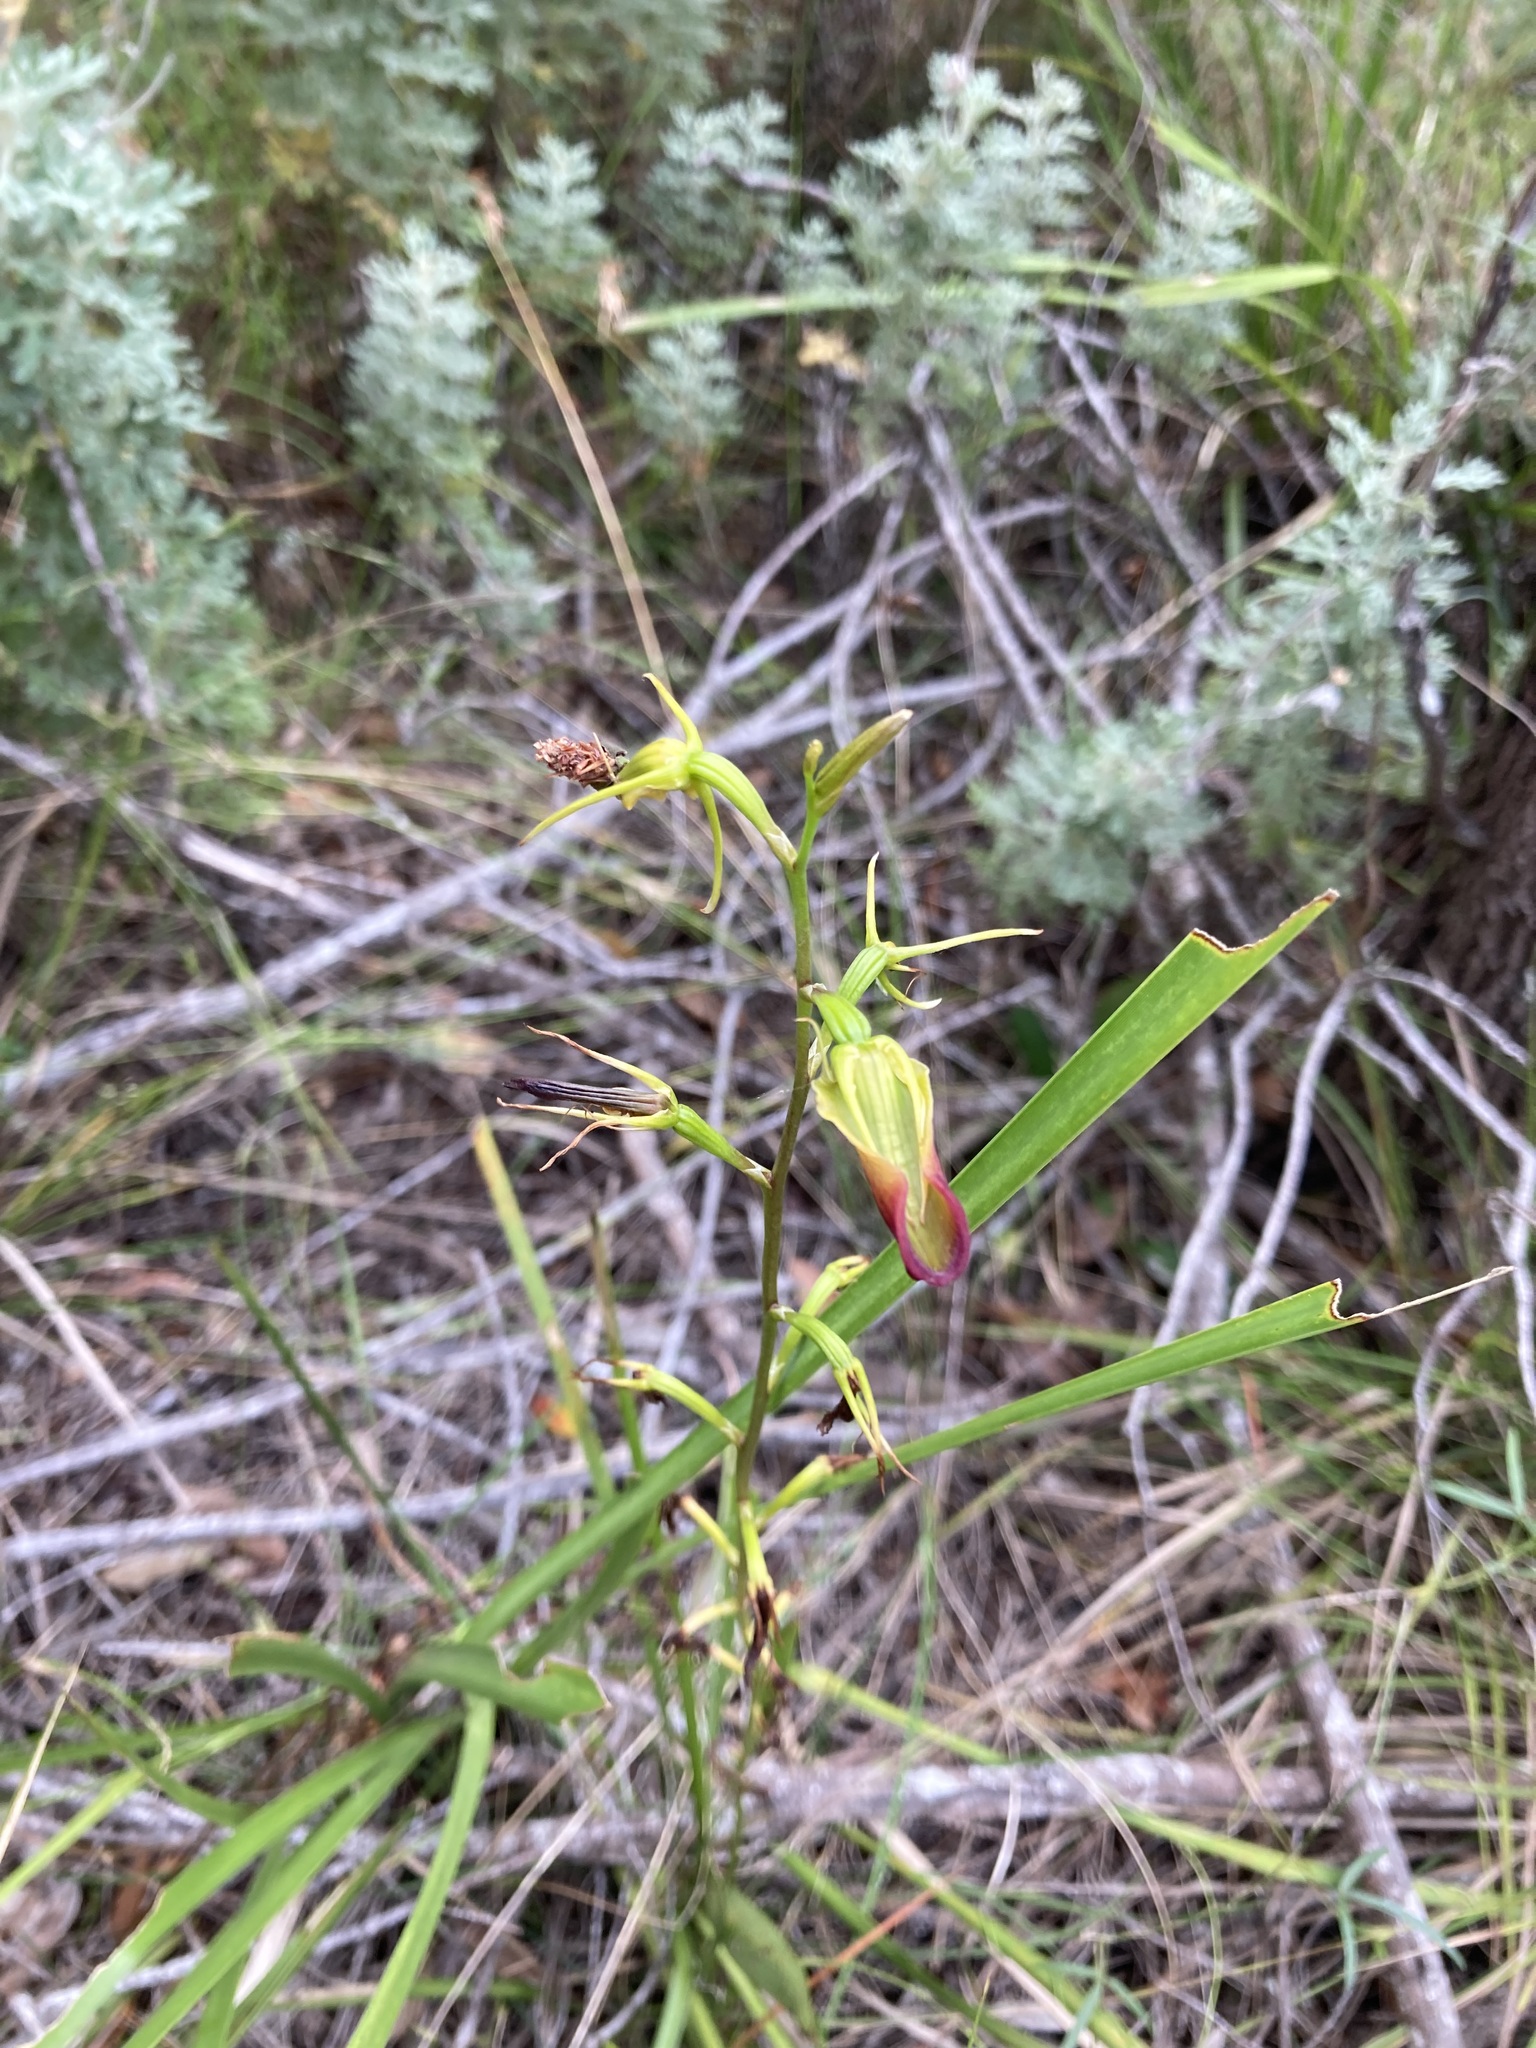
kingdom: Plantae
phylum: Tracheophyta
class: Liliopsida
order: Asparagales
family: Orchidaceae
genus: Cryptostylis
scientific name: Cryptostylis subulata
